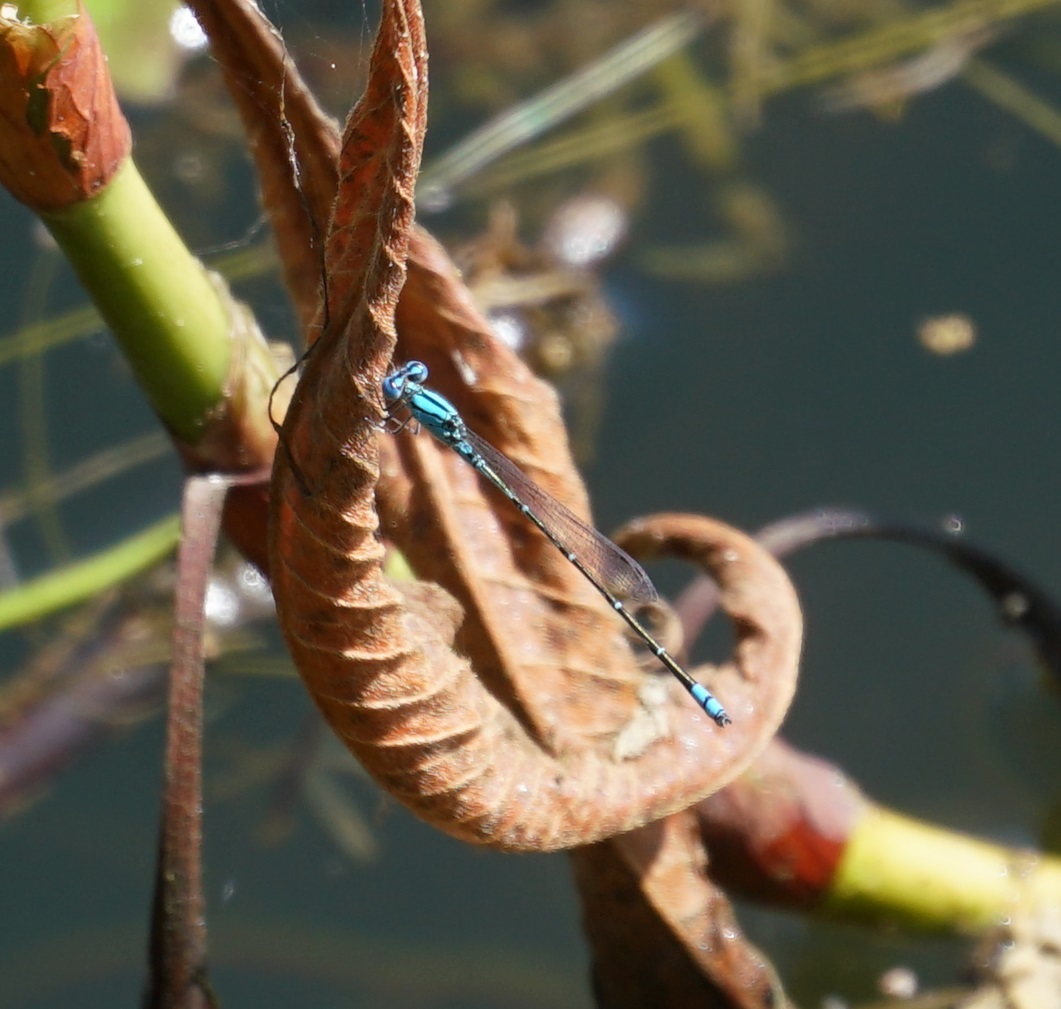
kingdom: Animalia
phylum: Arthropoda
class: Insecta
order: Odonata
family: Coenagrionidae
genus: Pseudagrion
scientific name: Pseudagrion microcephalum
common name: Blue riverdamsel
